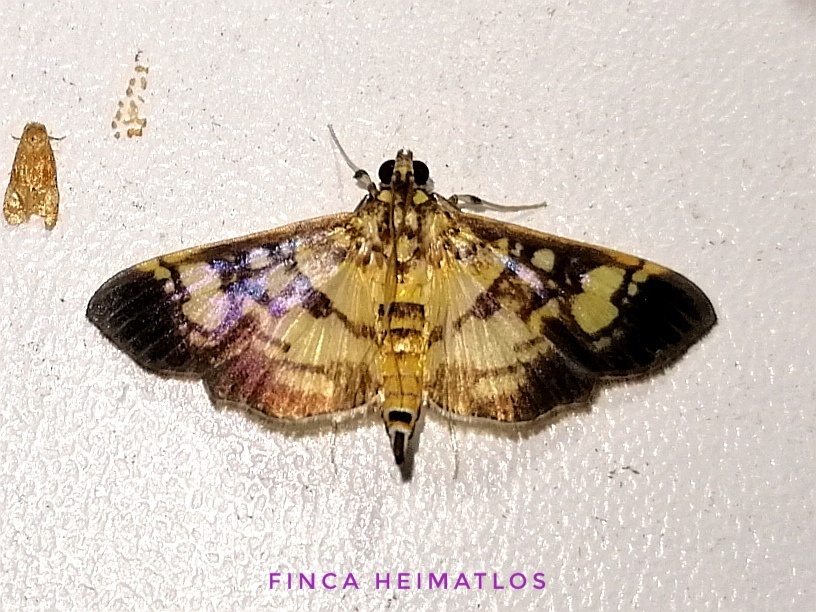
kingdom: Animalia
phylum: Arthropoda
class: Insecta
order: Lepidoptera
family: Crambidae
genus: Salbia
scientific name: Salbia
